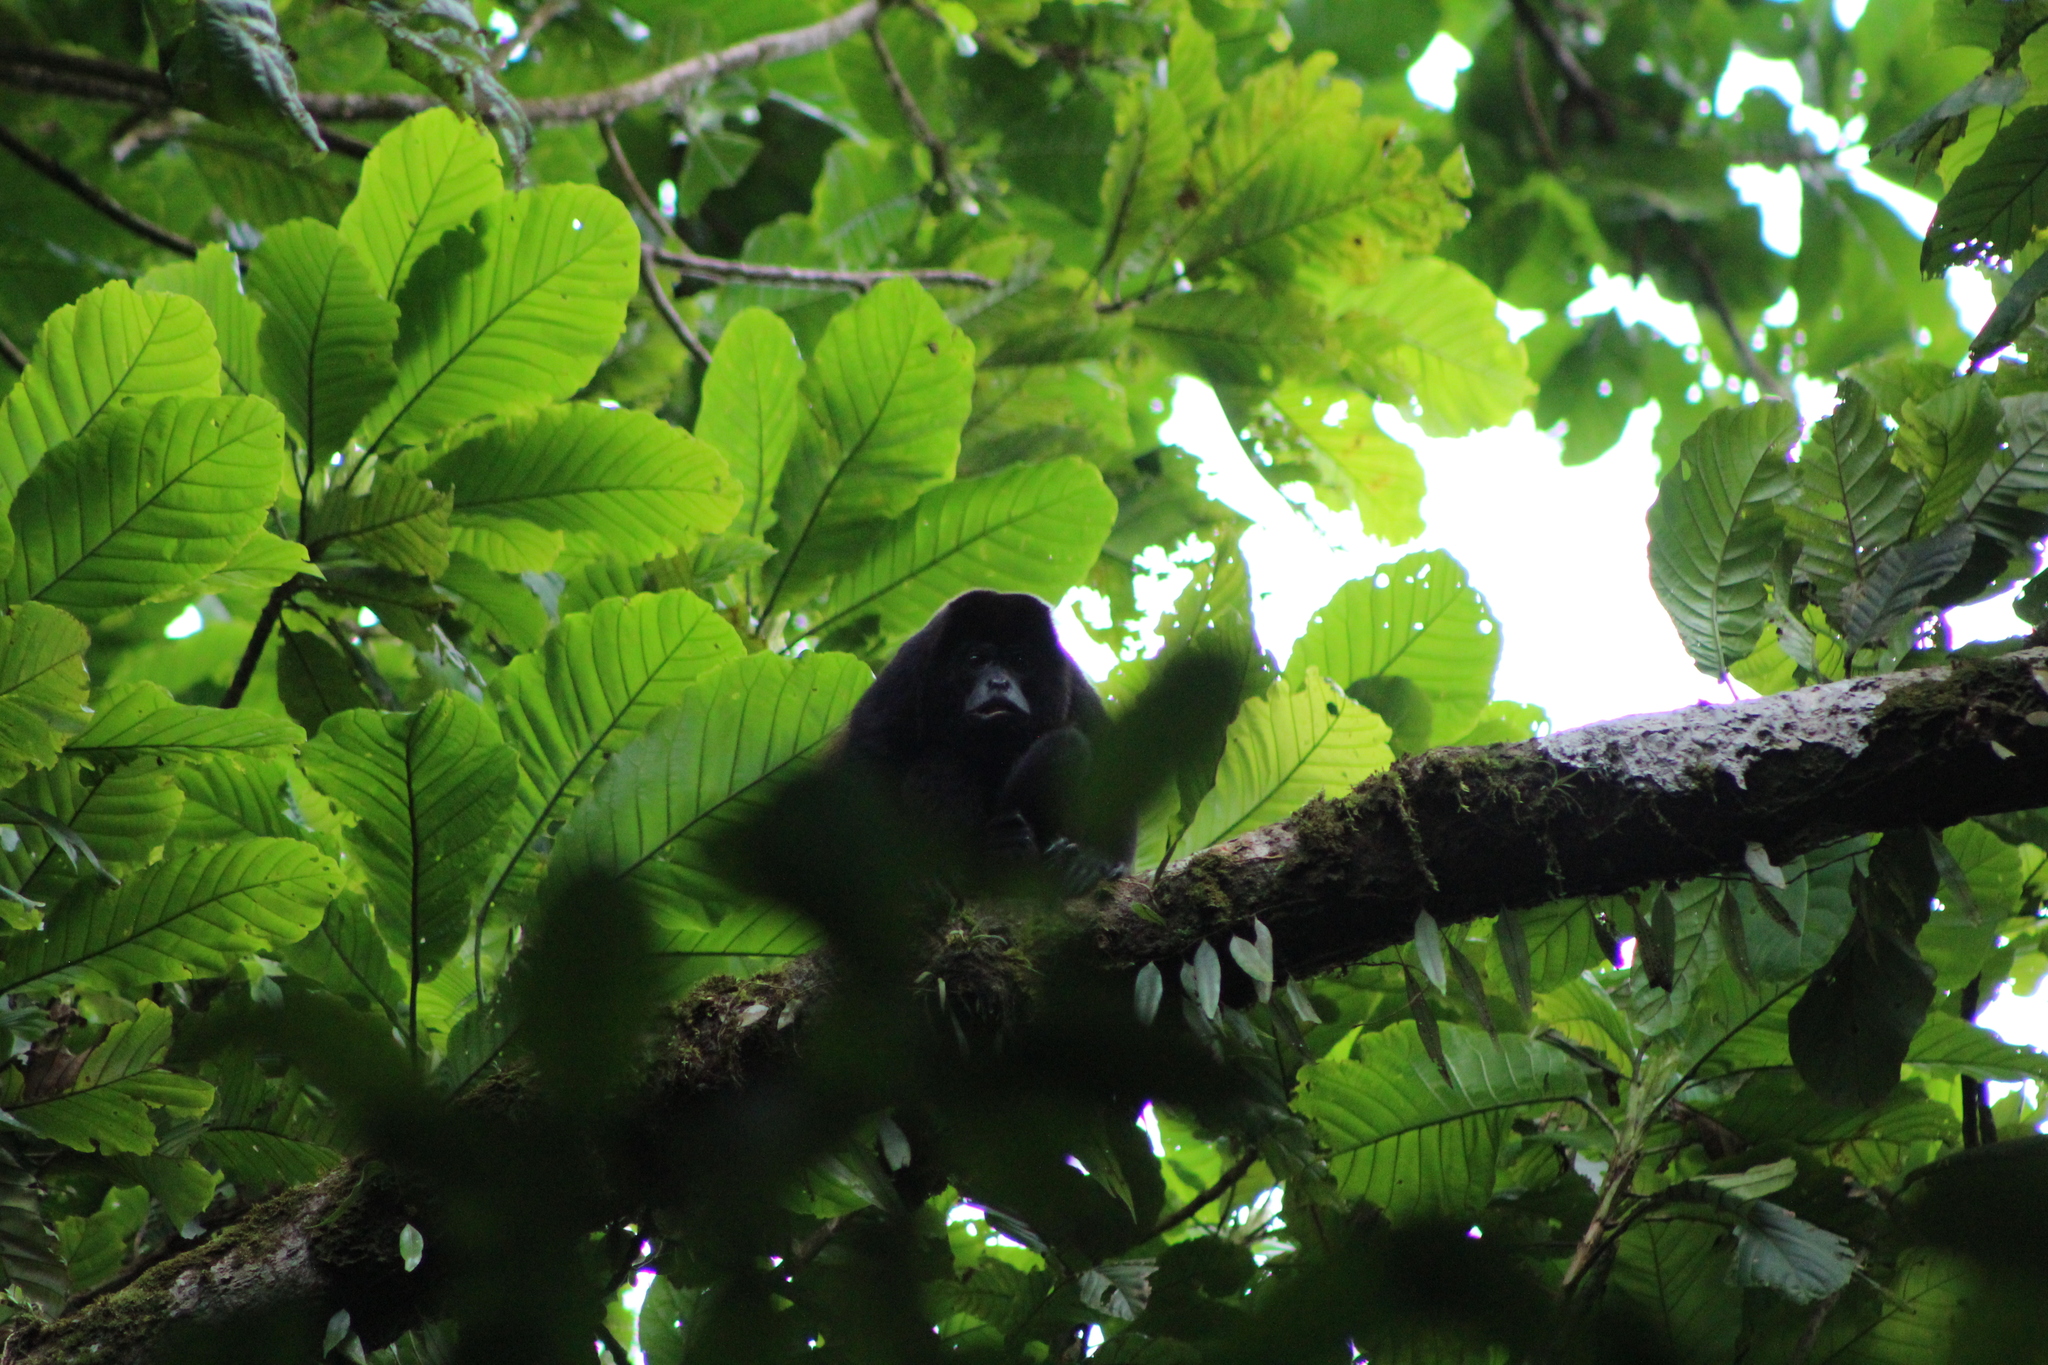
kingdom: Animalia
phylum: Chordata
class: Mammalia
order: Primates
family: Atelidae
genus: Alouatta
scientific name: Alouatta palliata
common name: Mantled howler
